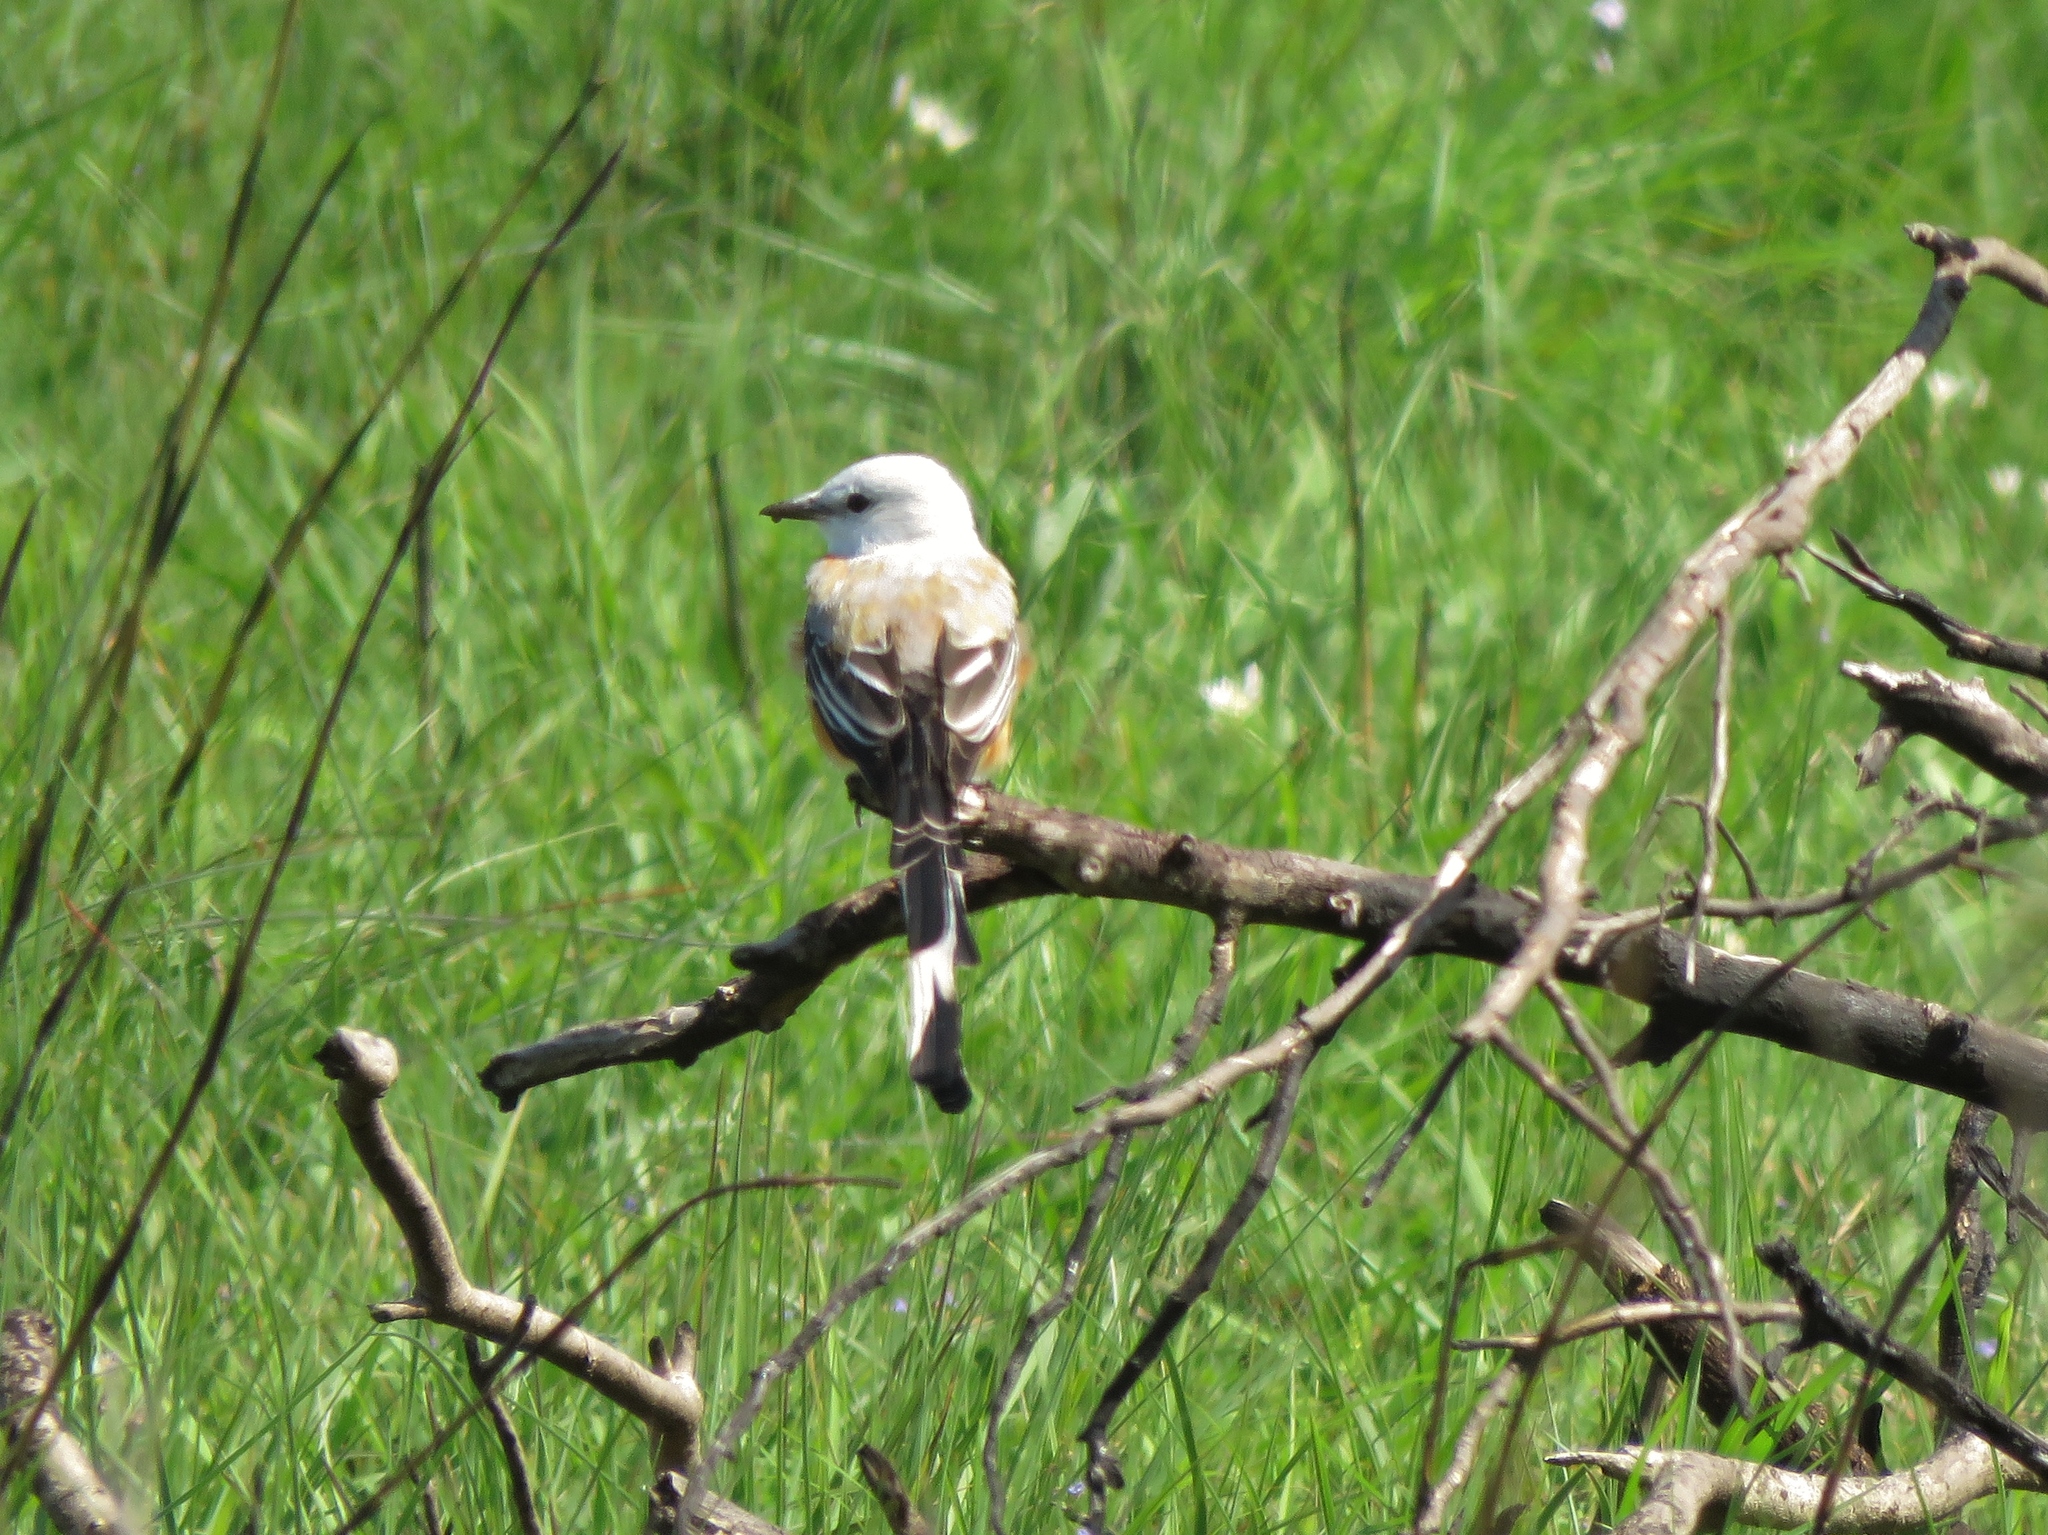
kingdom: Animalia
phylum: Chordata
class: Aves
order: Passeriformes
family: Tyrannidae
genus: Tyrannus
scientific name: Tyrannus forficatus
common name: Scissor-tailed flycatcher
